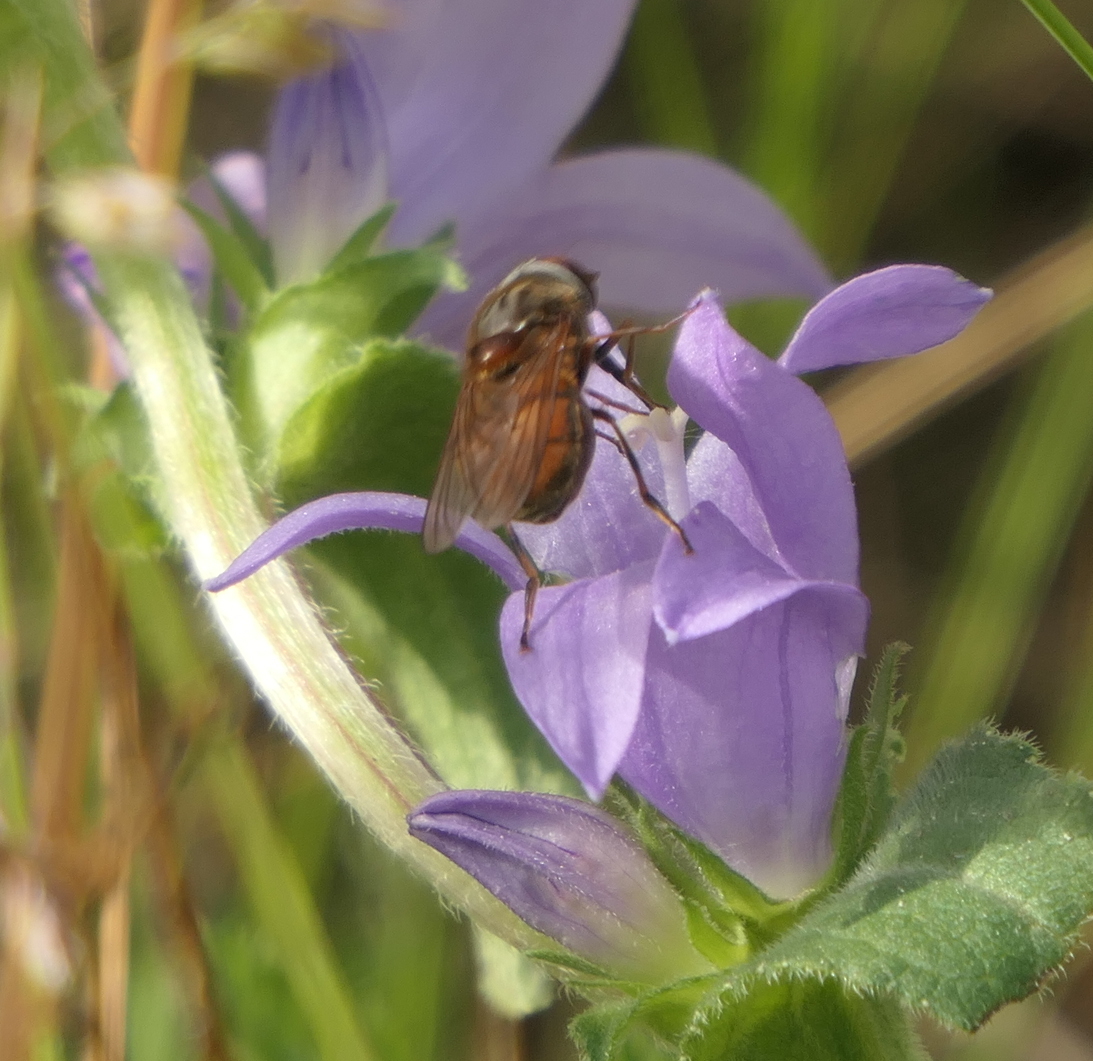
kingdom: Animalia
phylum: Arthropoda
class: Insecta
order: Diptera
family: Syrphidae
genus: Rhingia
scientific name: Rhingia campestris
